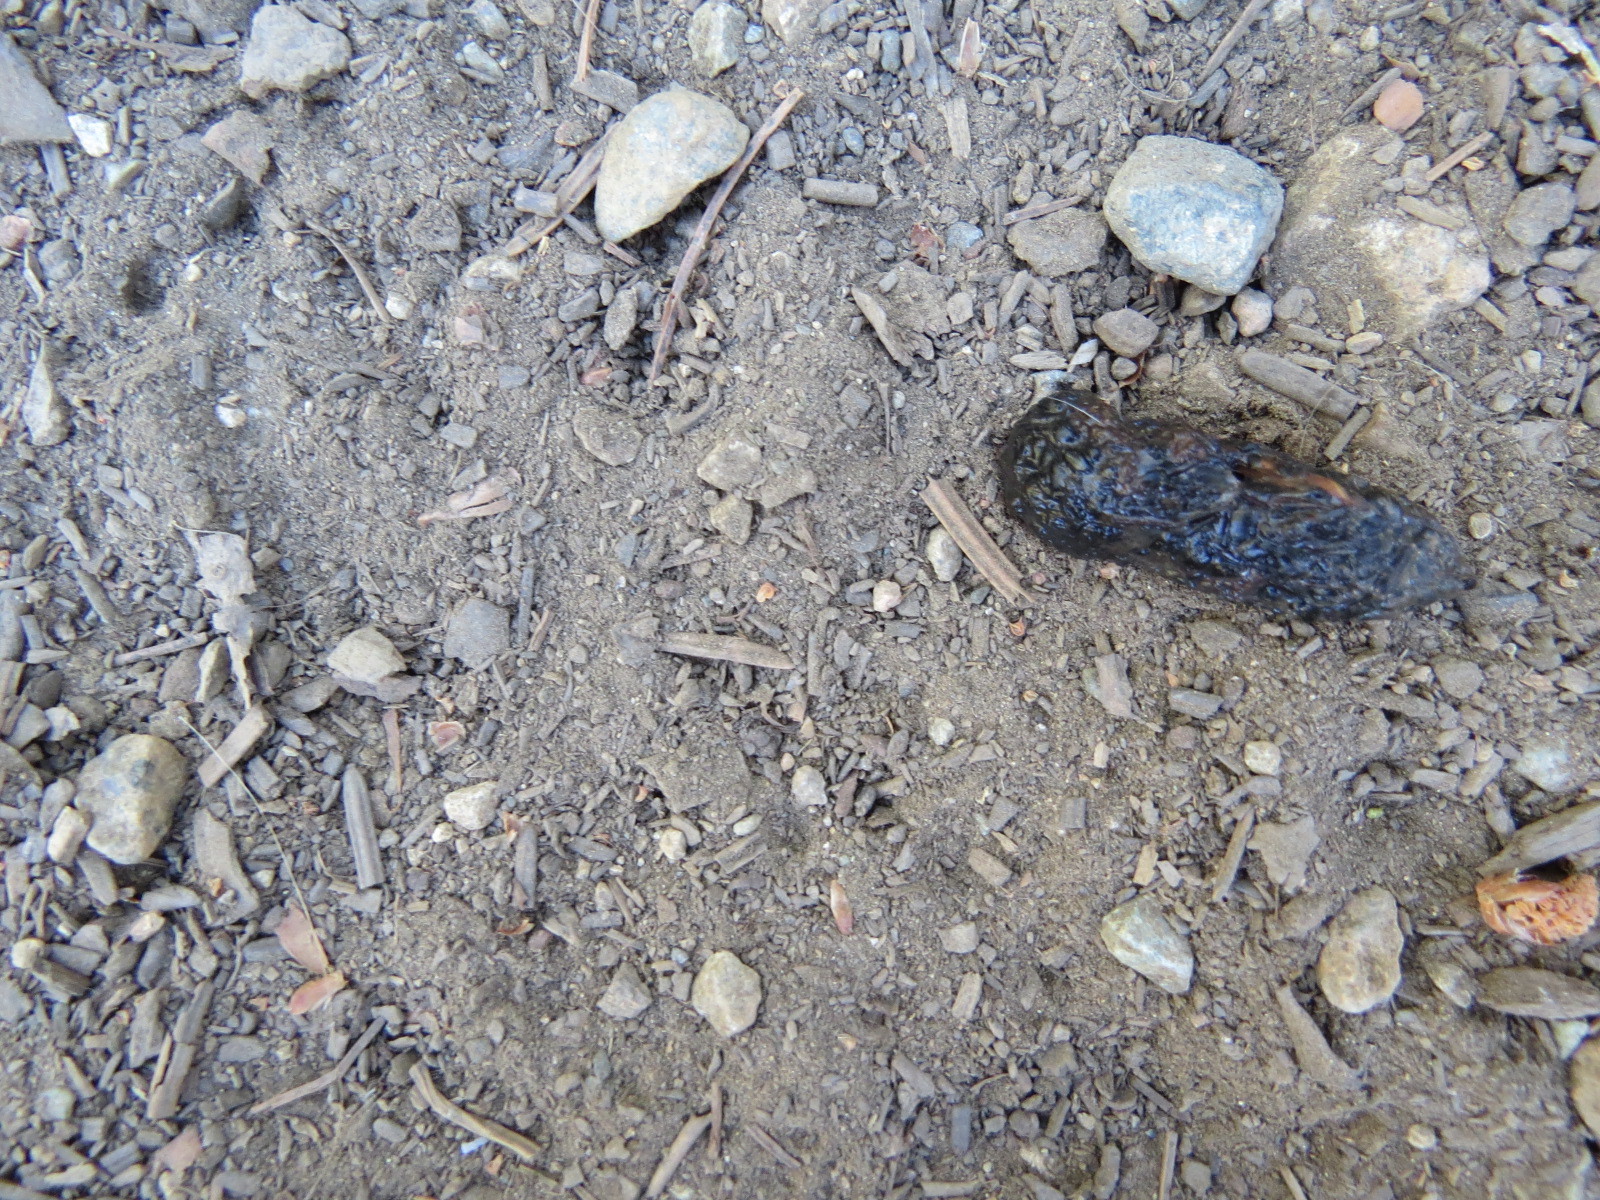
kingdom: Animalia
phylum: Chordata
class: Amphibia
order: Anura
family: Bufonidae
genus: Anaxyrus
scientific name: Anaxyrus boreas
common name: Western toad
